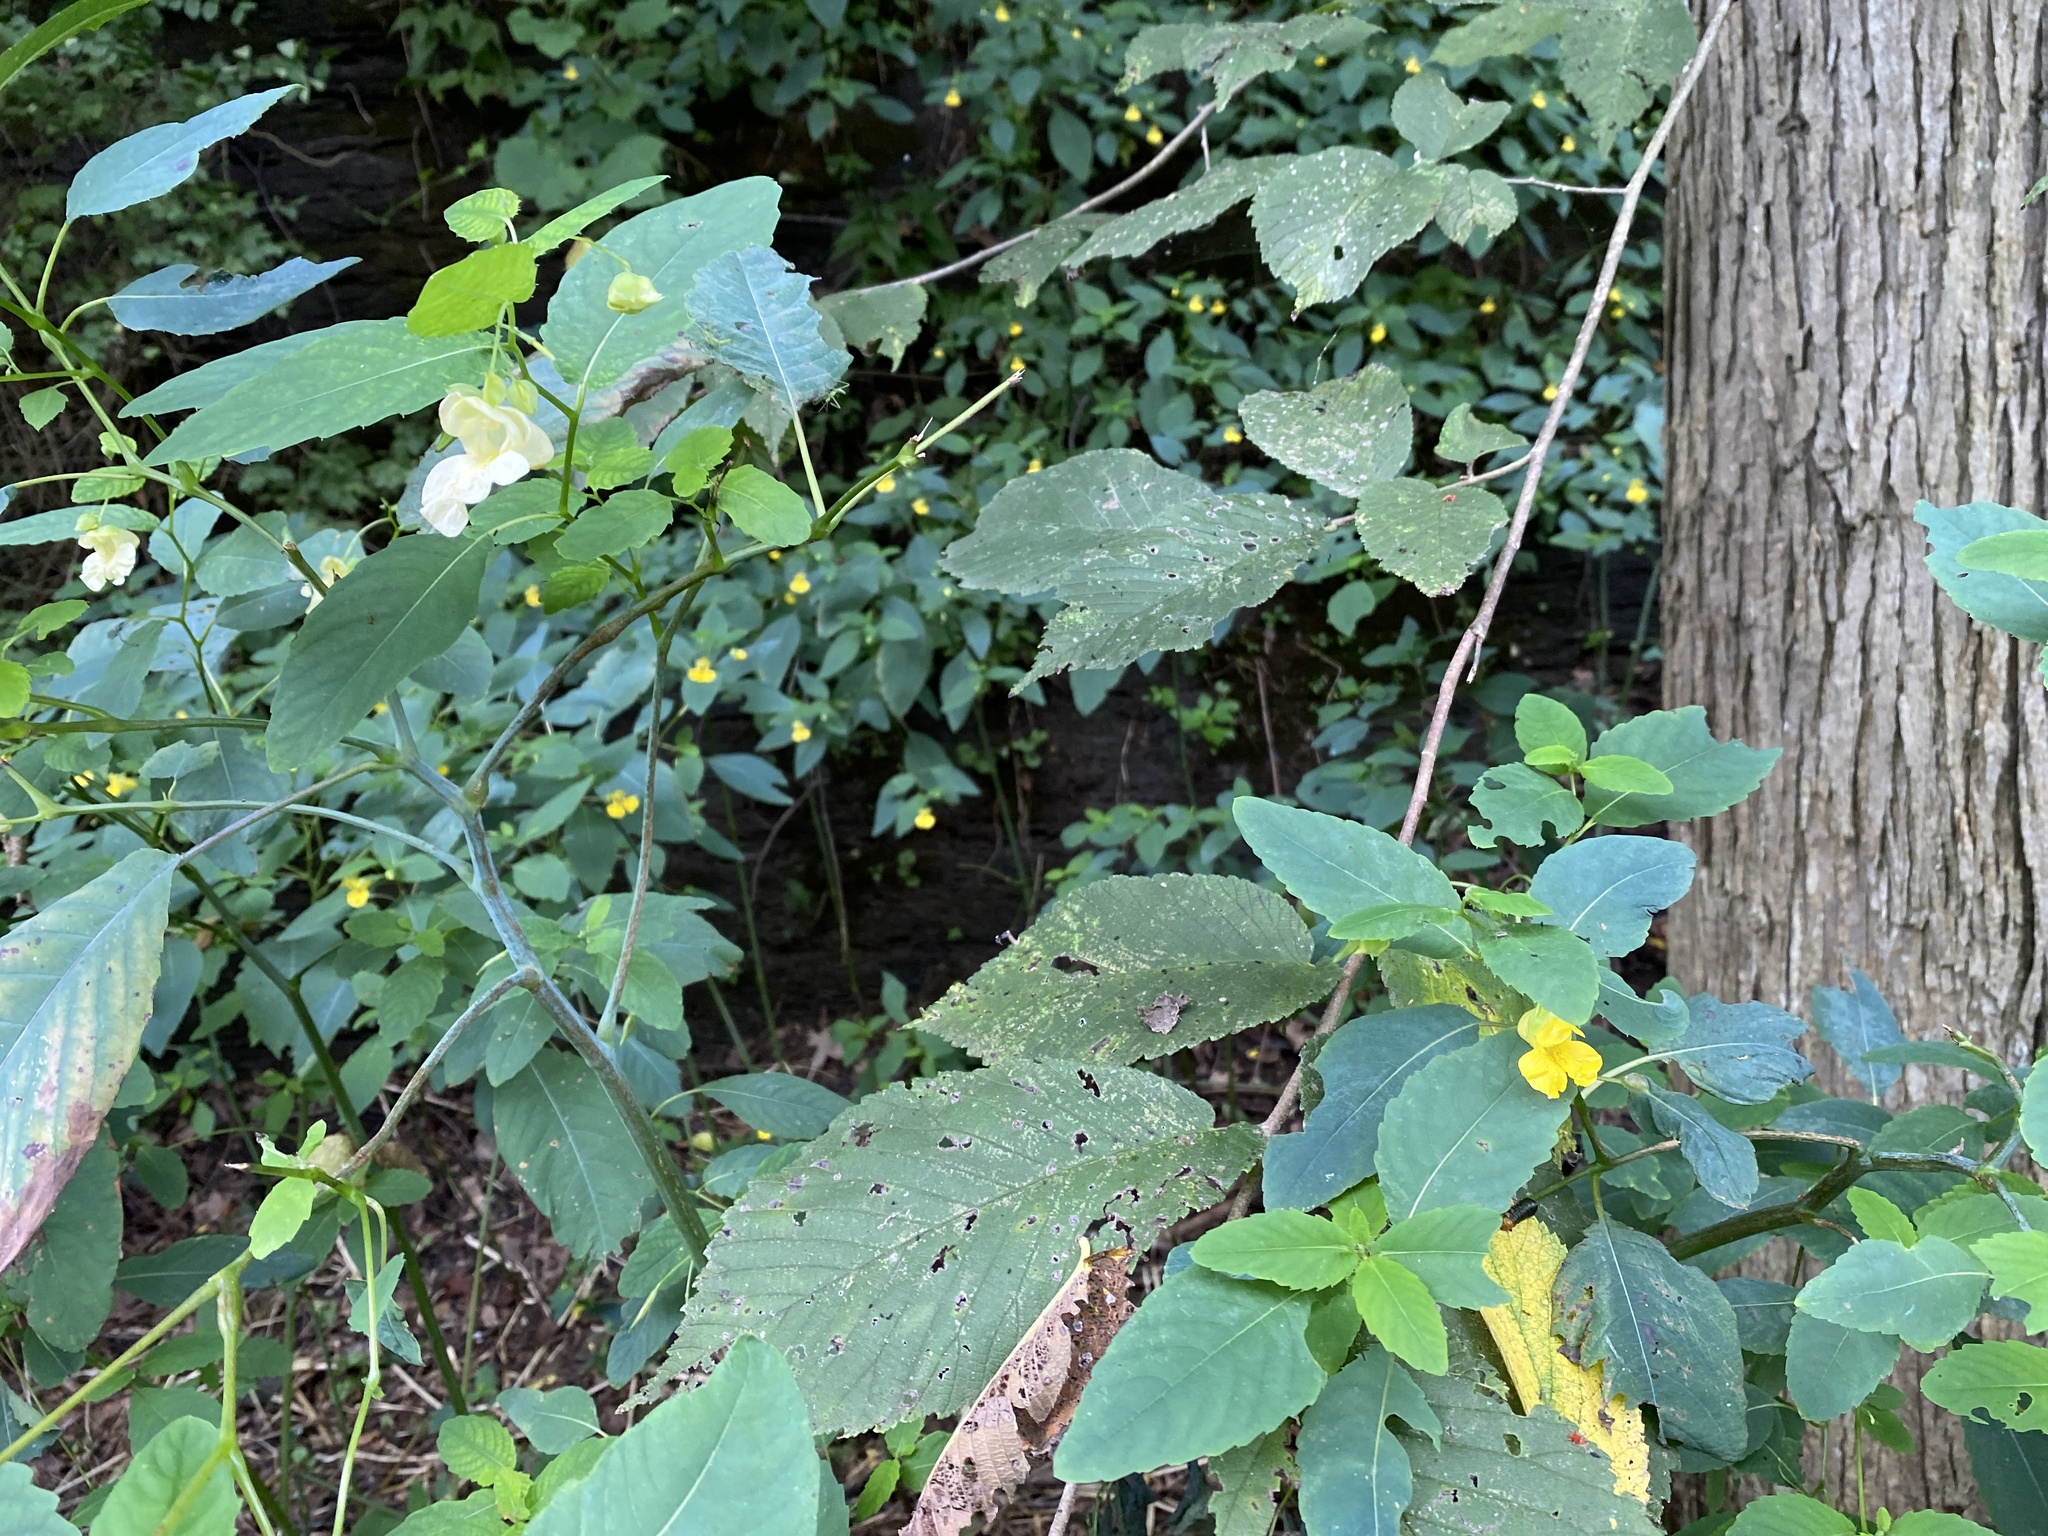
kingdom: Plantae
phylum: Tracheophyta
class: Magnoliopsida
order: Ericales
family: Balsaminaceae
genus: Impatiens
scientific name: Impatiens pallida
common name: Pale snapweed
